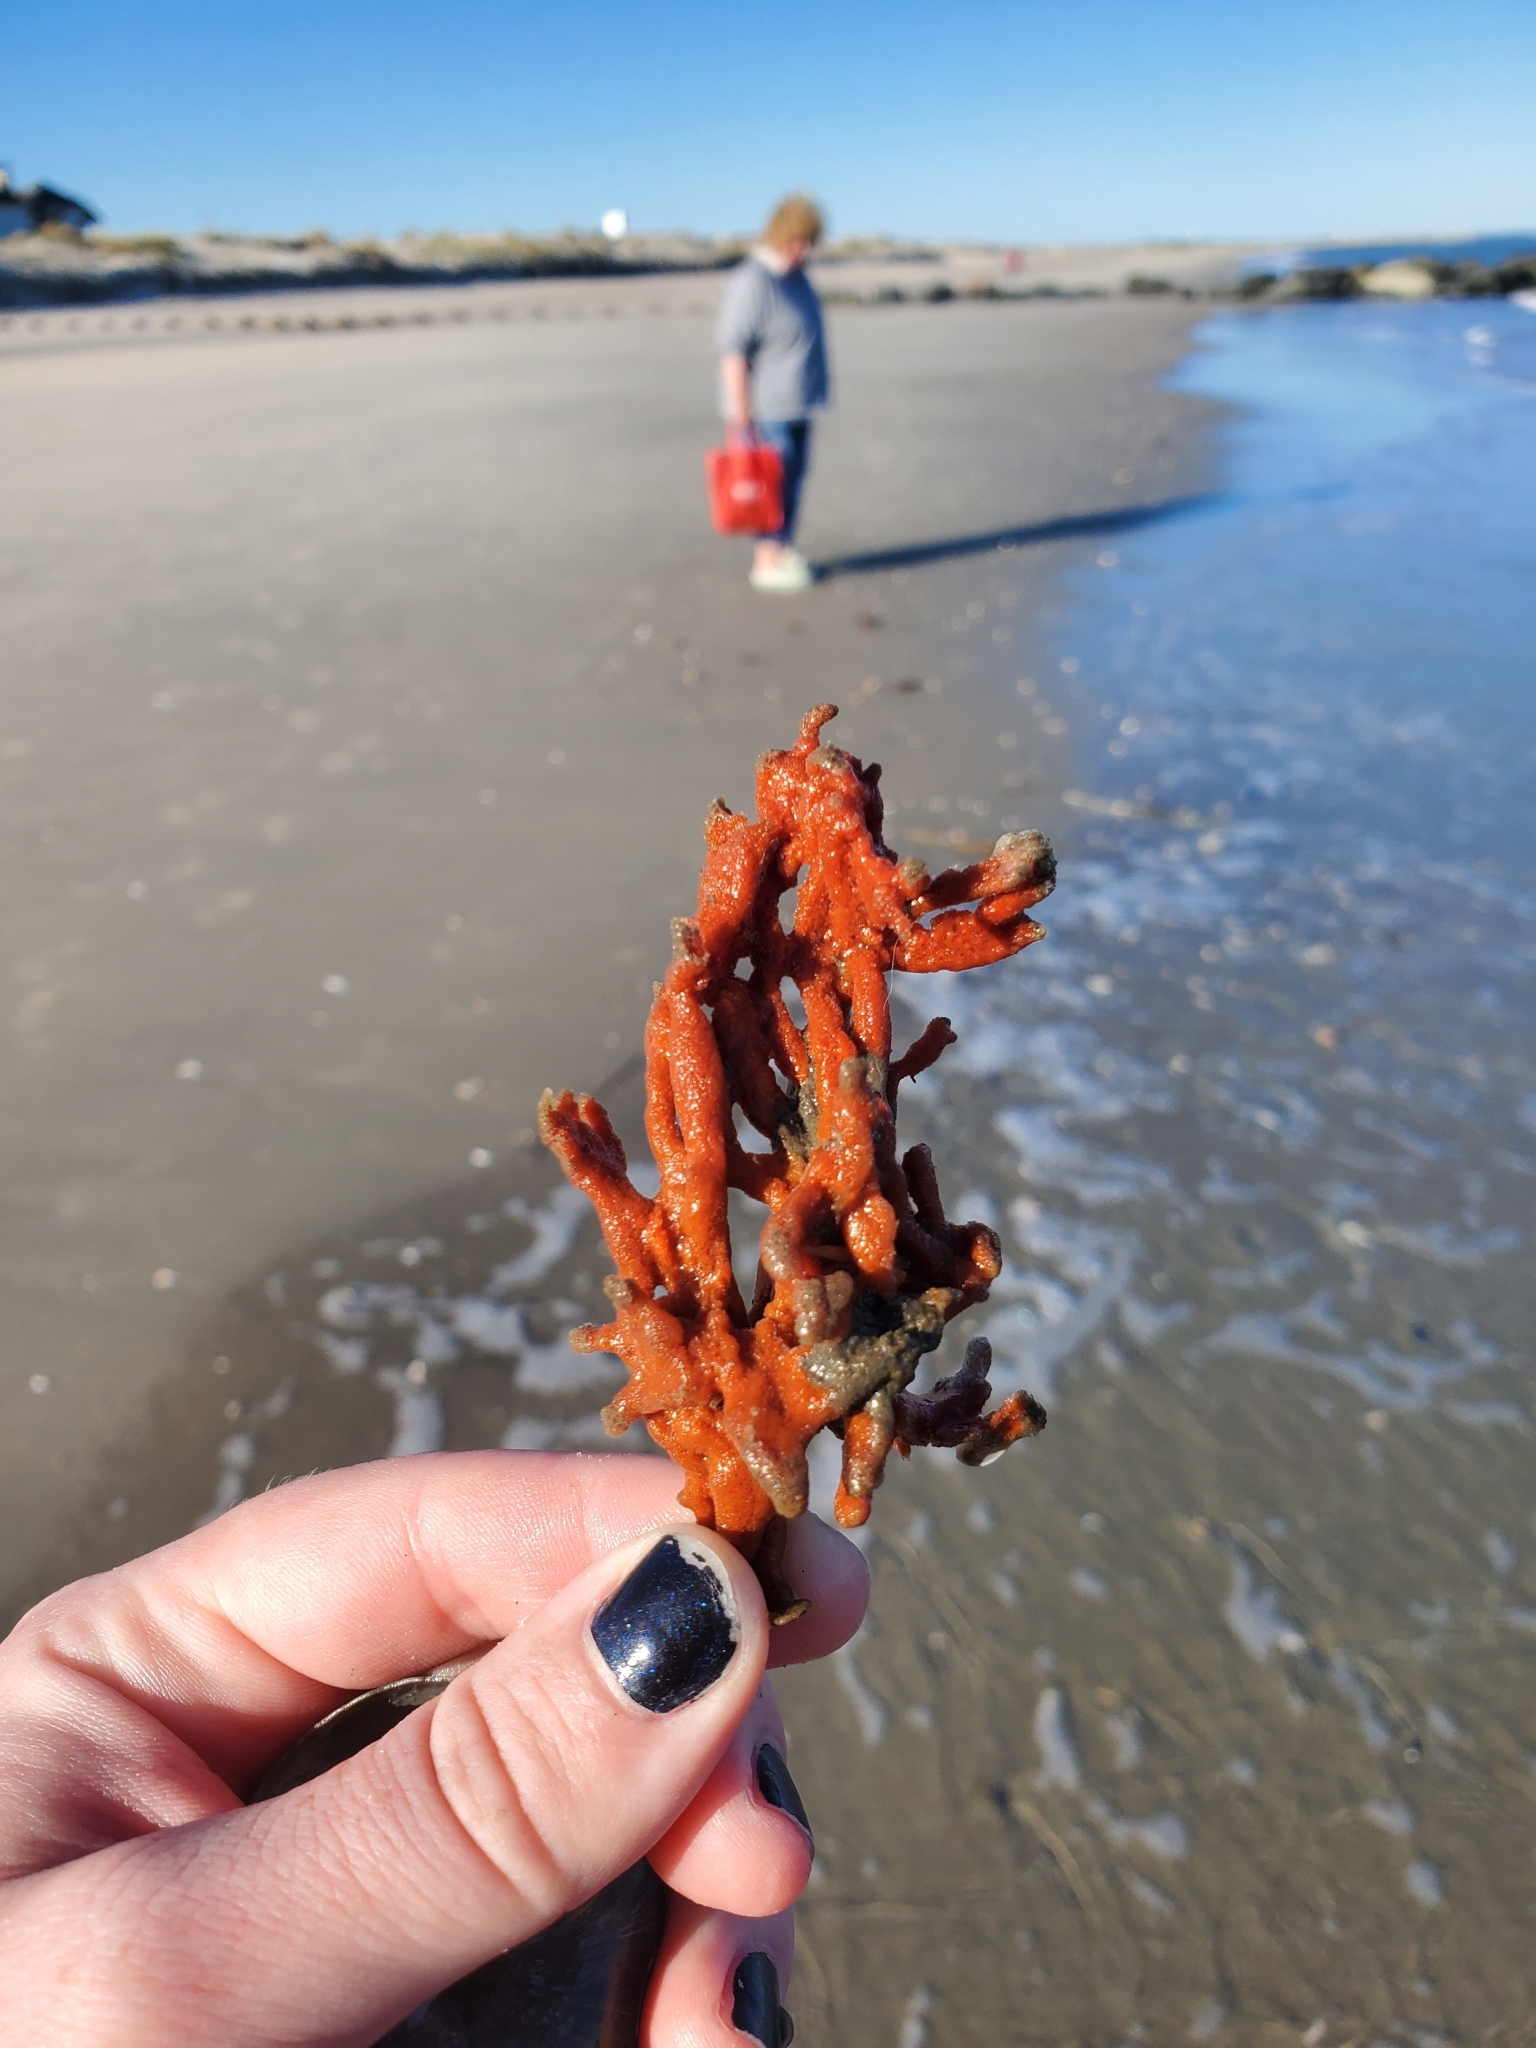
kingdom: Animalia
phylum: Porifera
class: Demospongiae
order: Poecilosclerida
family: Microcionidae
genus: Clathria
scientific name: Clathria prolifera
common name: Red beard sponge
